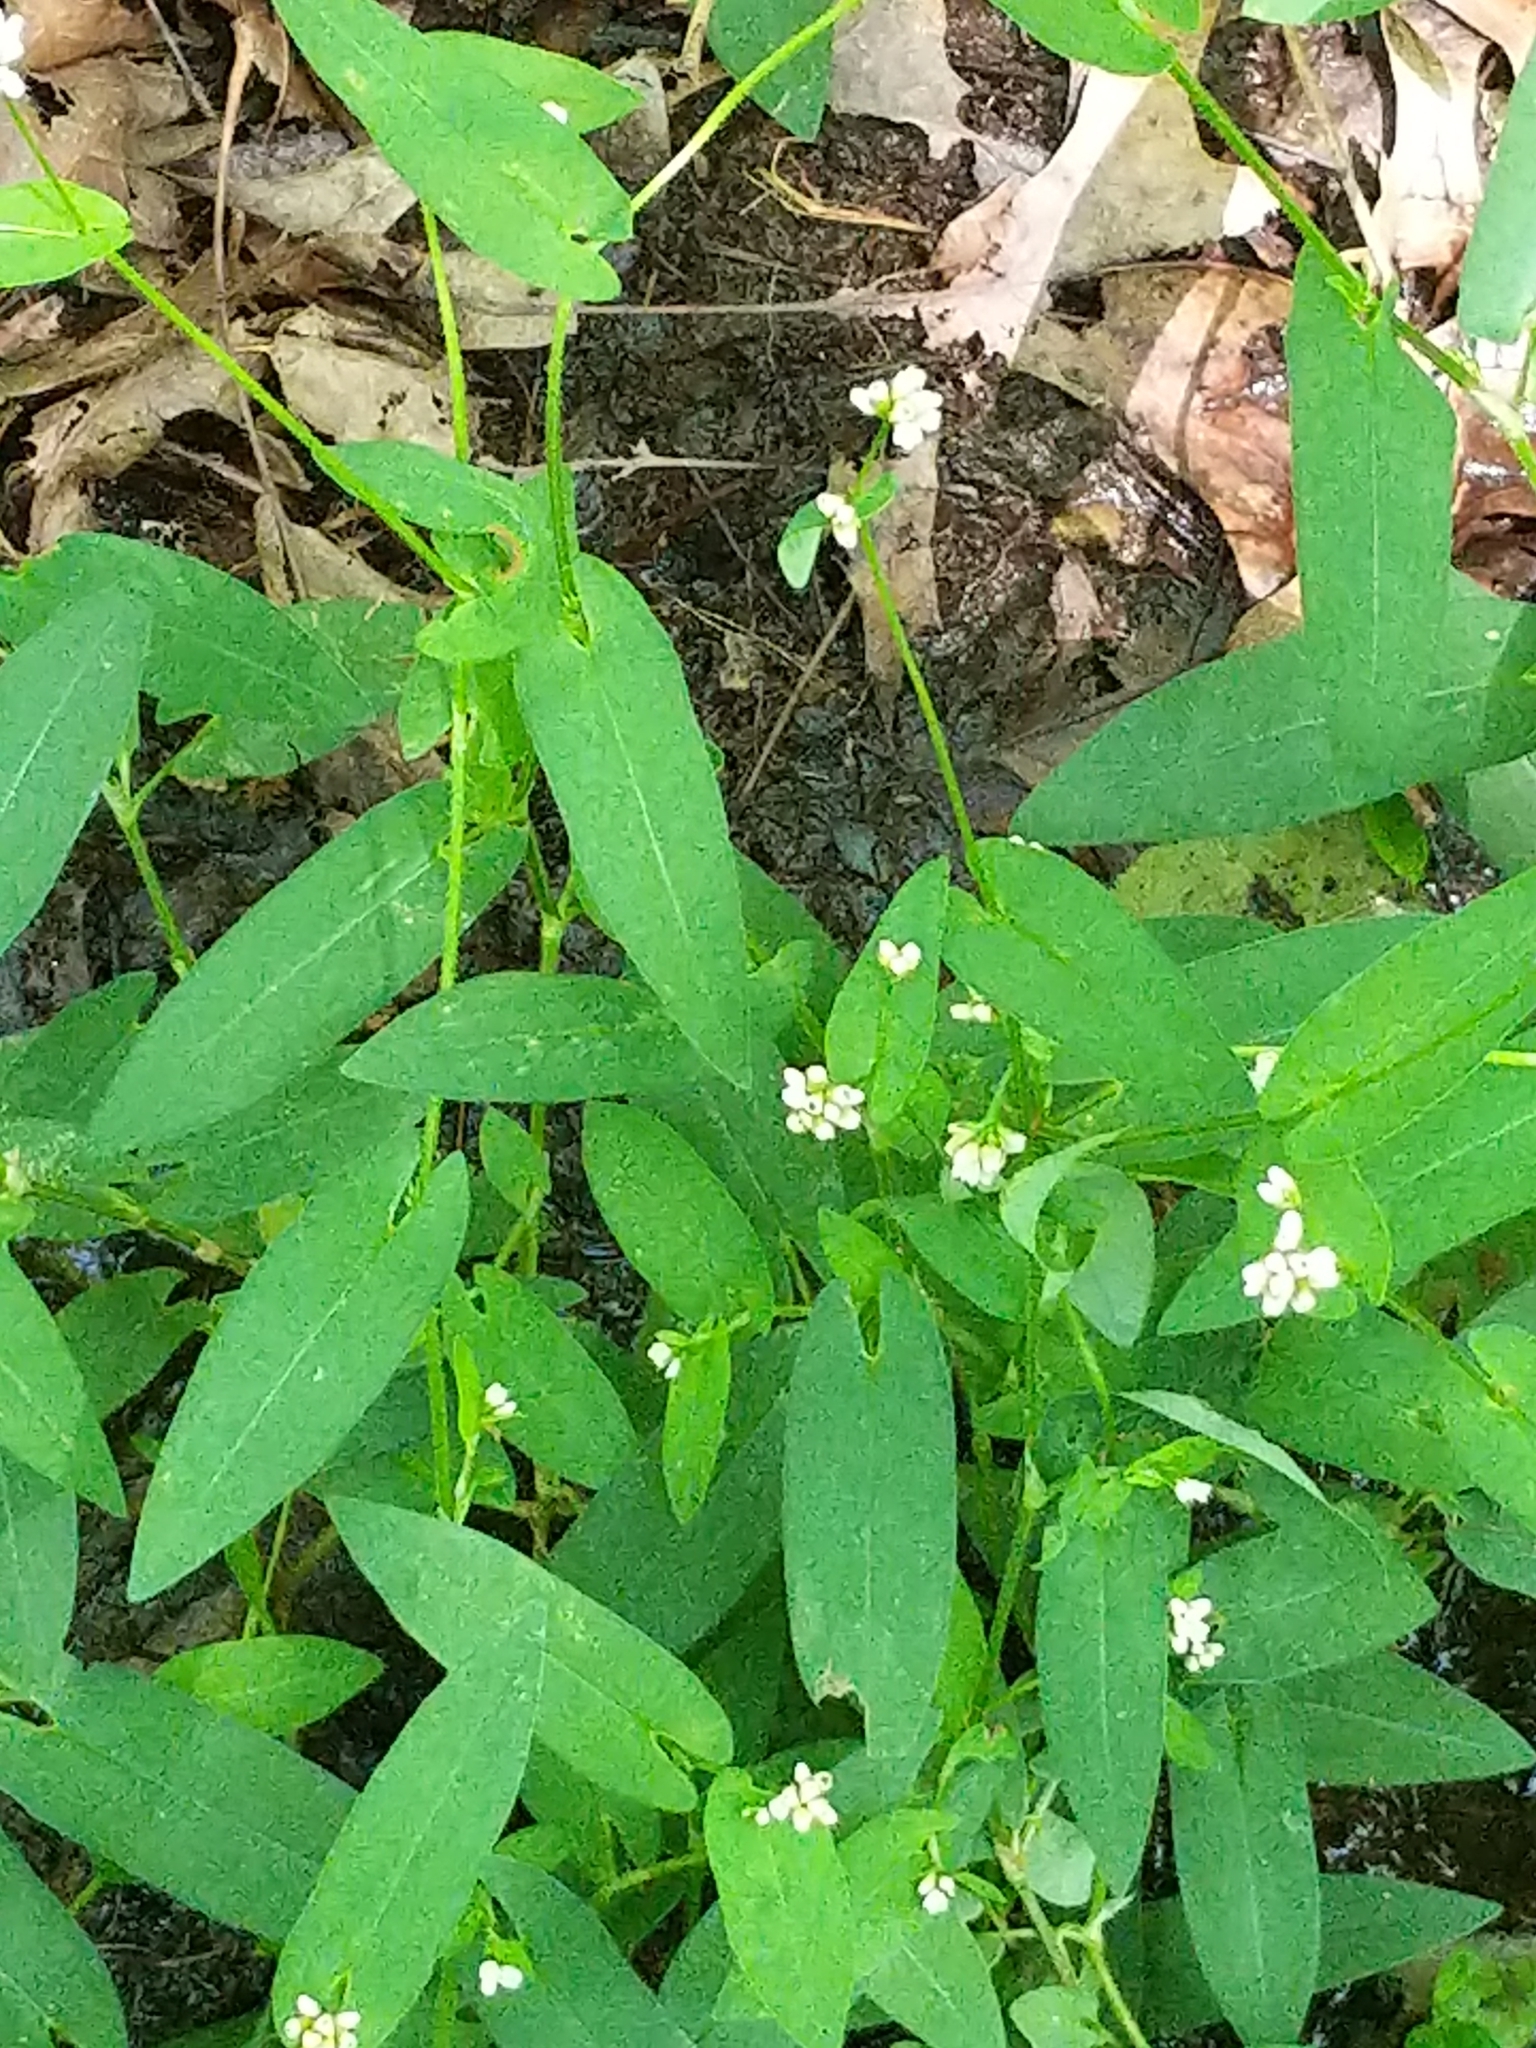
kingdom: Plantae
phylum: Tracheophyta
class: Magnoliopsida
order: Caryophyllales
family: Polygonaceae
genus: Persicaria
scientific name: Persicaria sagittata
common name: American tearthumb
